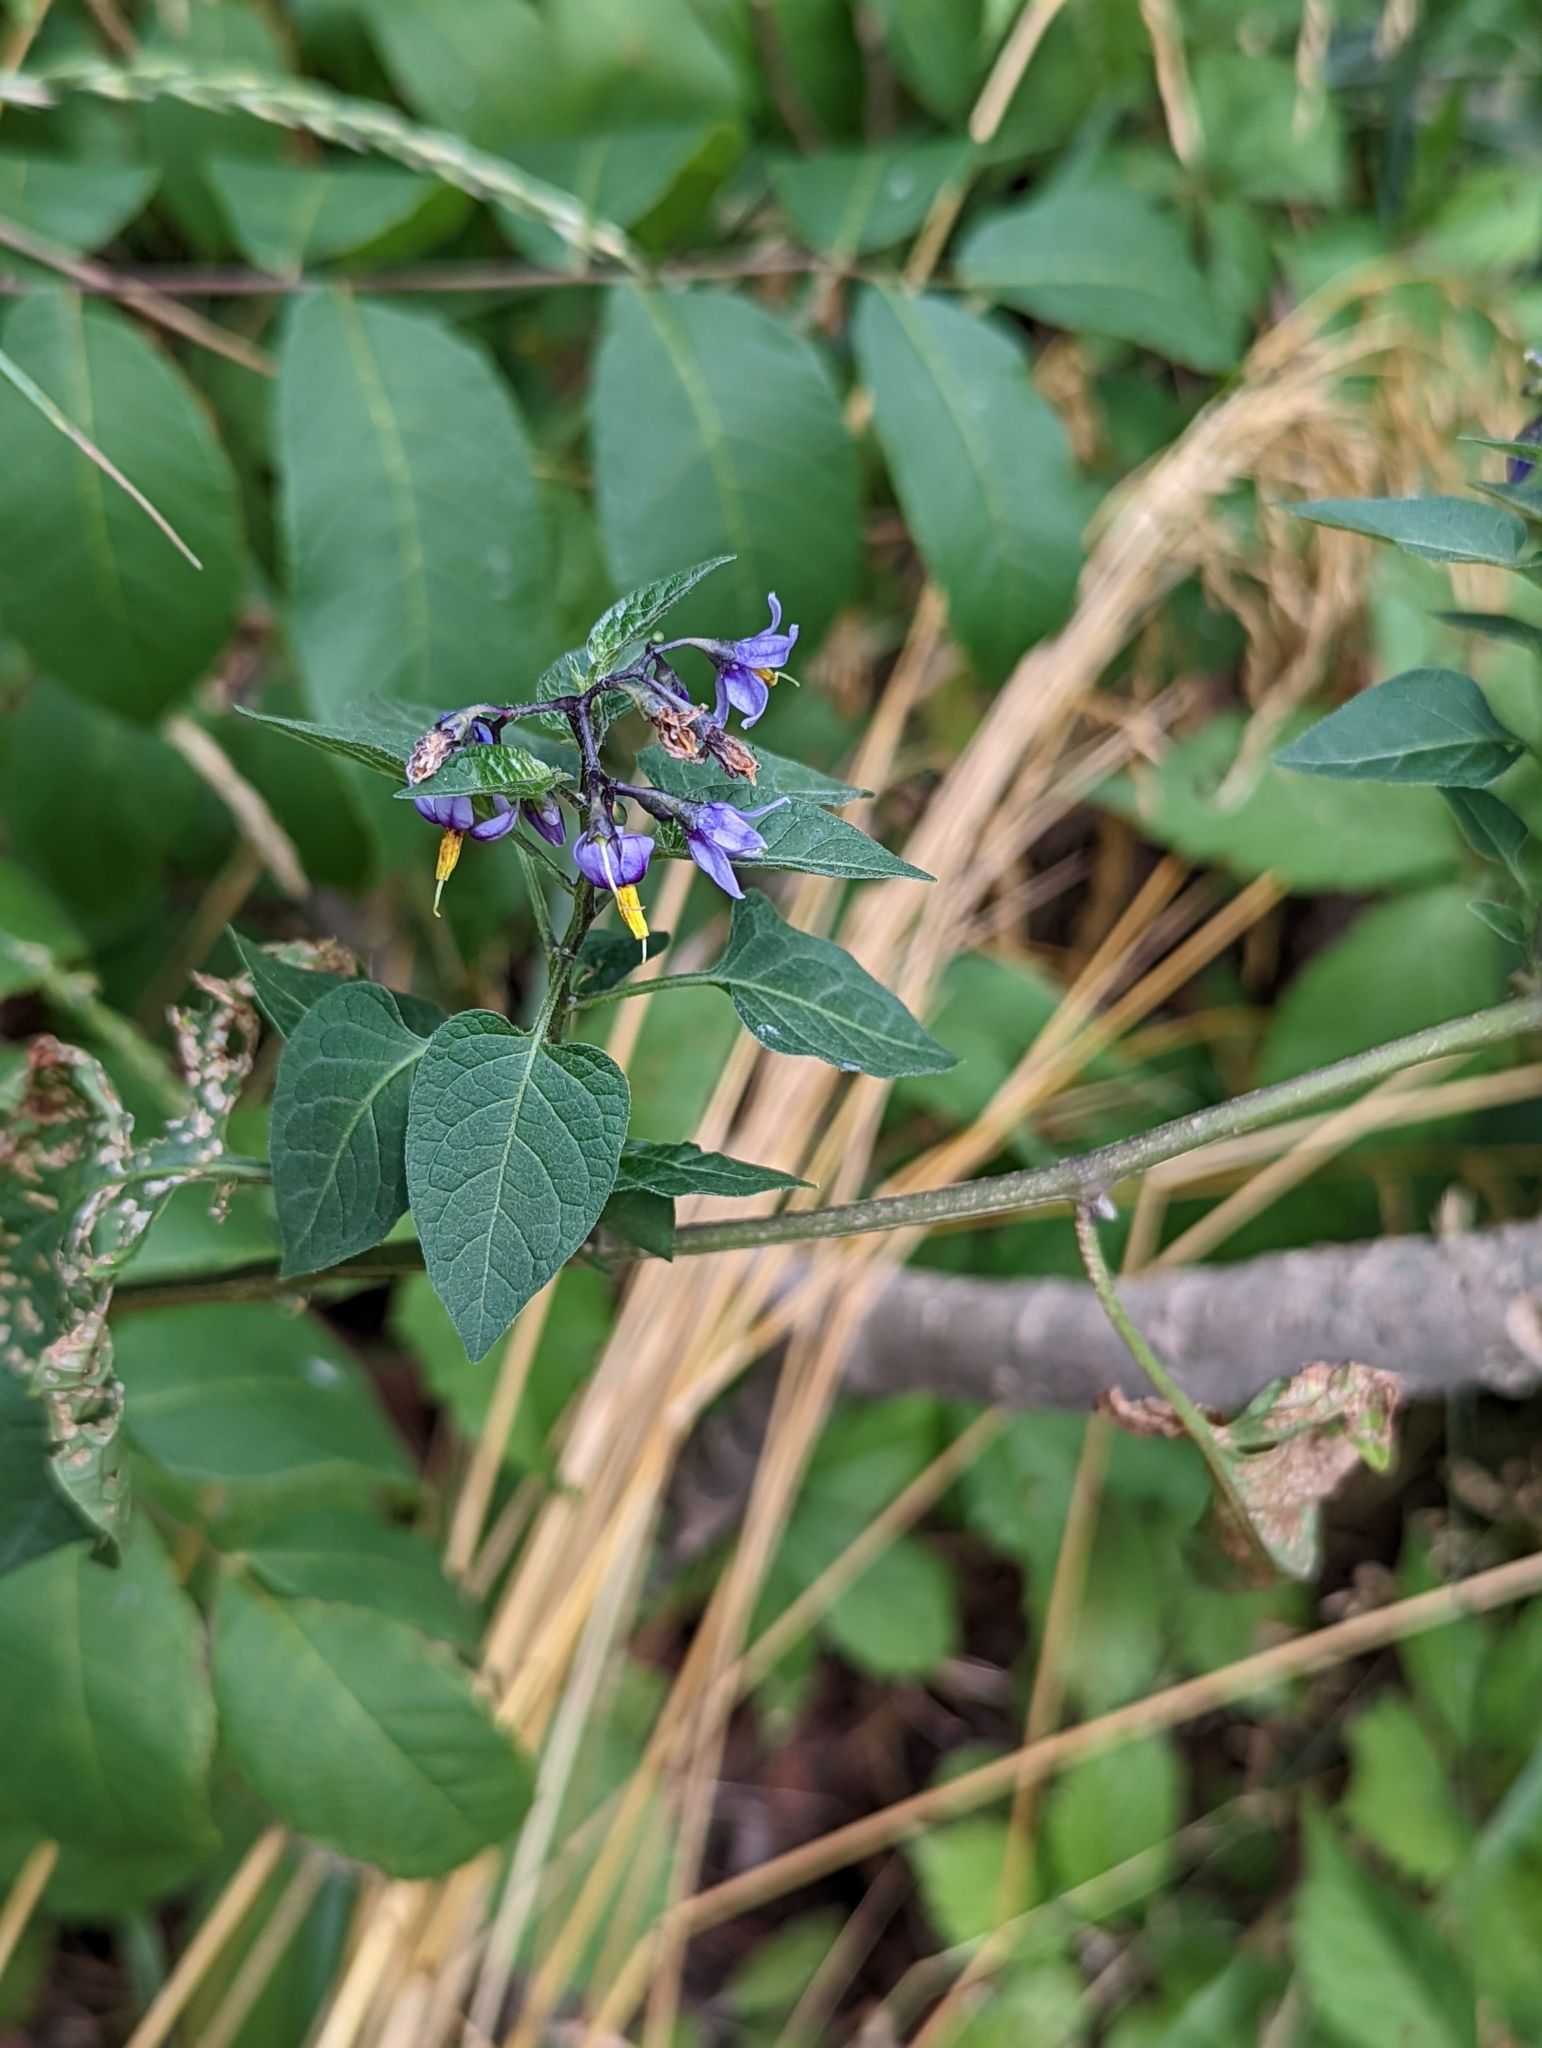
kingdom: Plantae
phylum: Tracheophyta
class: Magnoliopsida
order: Solanales
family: Solanaceae
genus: Solanum
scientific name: Solanum dulcamara
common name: Climbing nightshade
